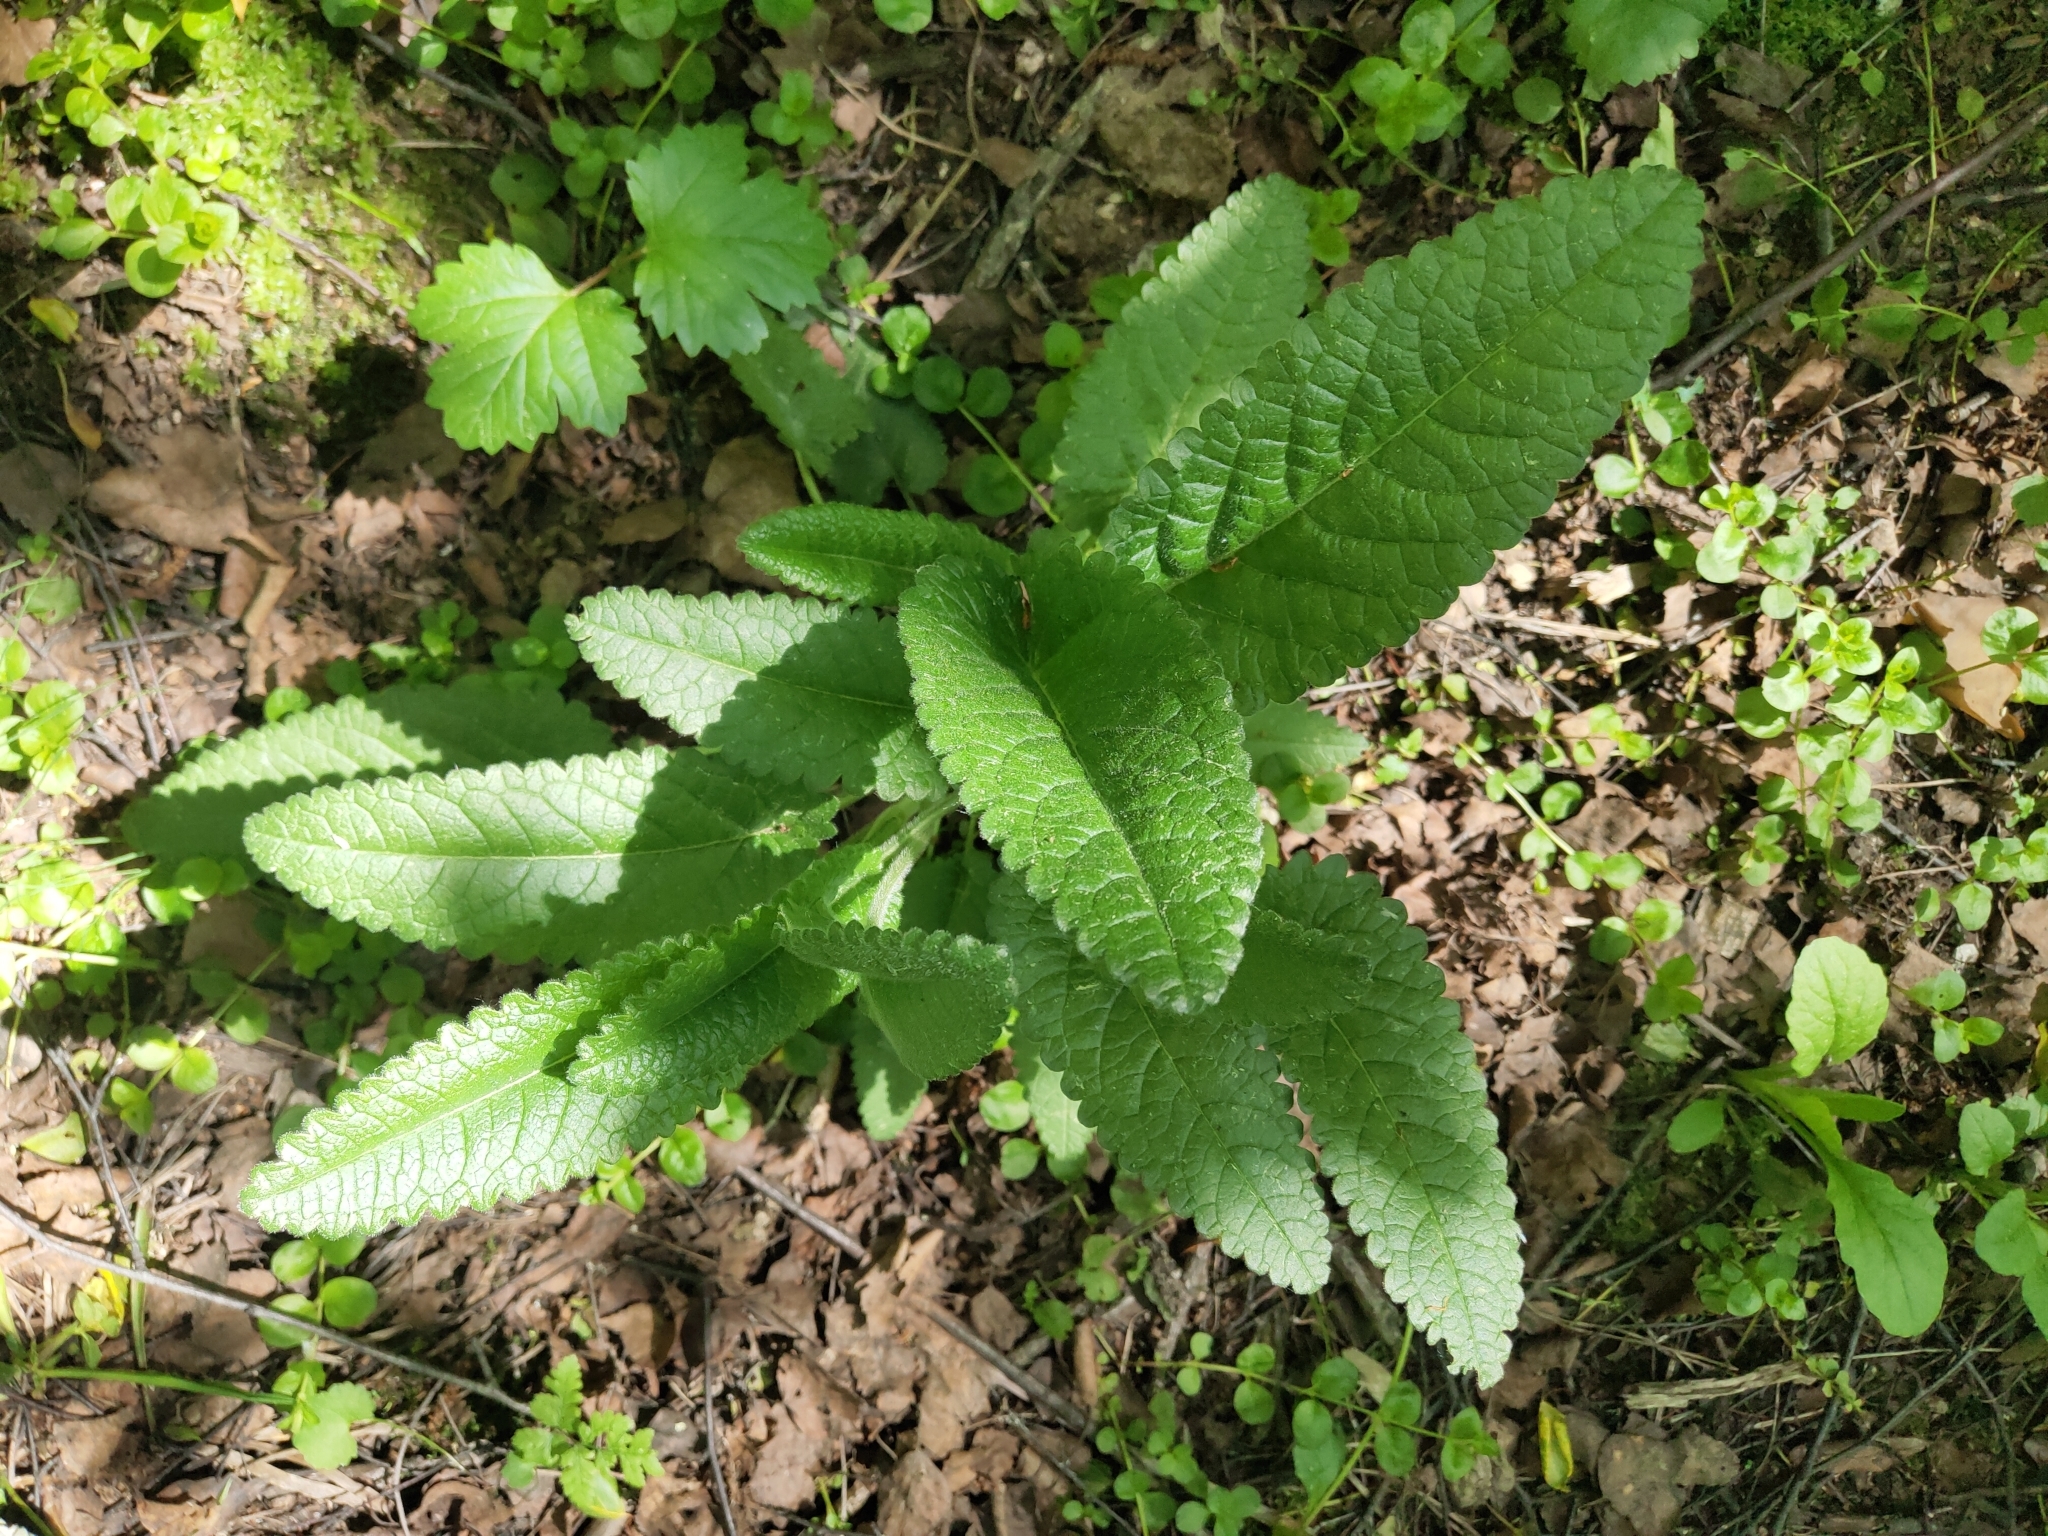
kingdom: Plantae
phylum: Tracheophyta
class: Magnoliopsida
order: Lamiales
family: Lamiaceae
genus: Betonica
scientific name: Betonica officinalis
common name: Bishop's-wort
